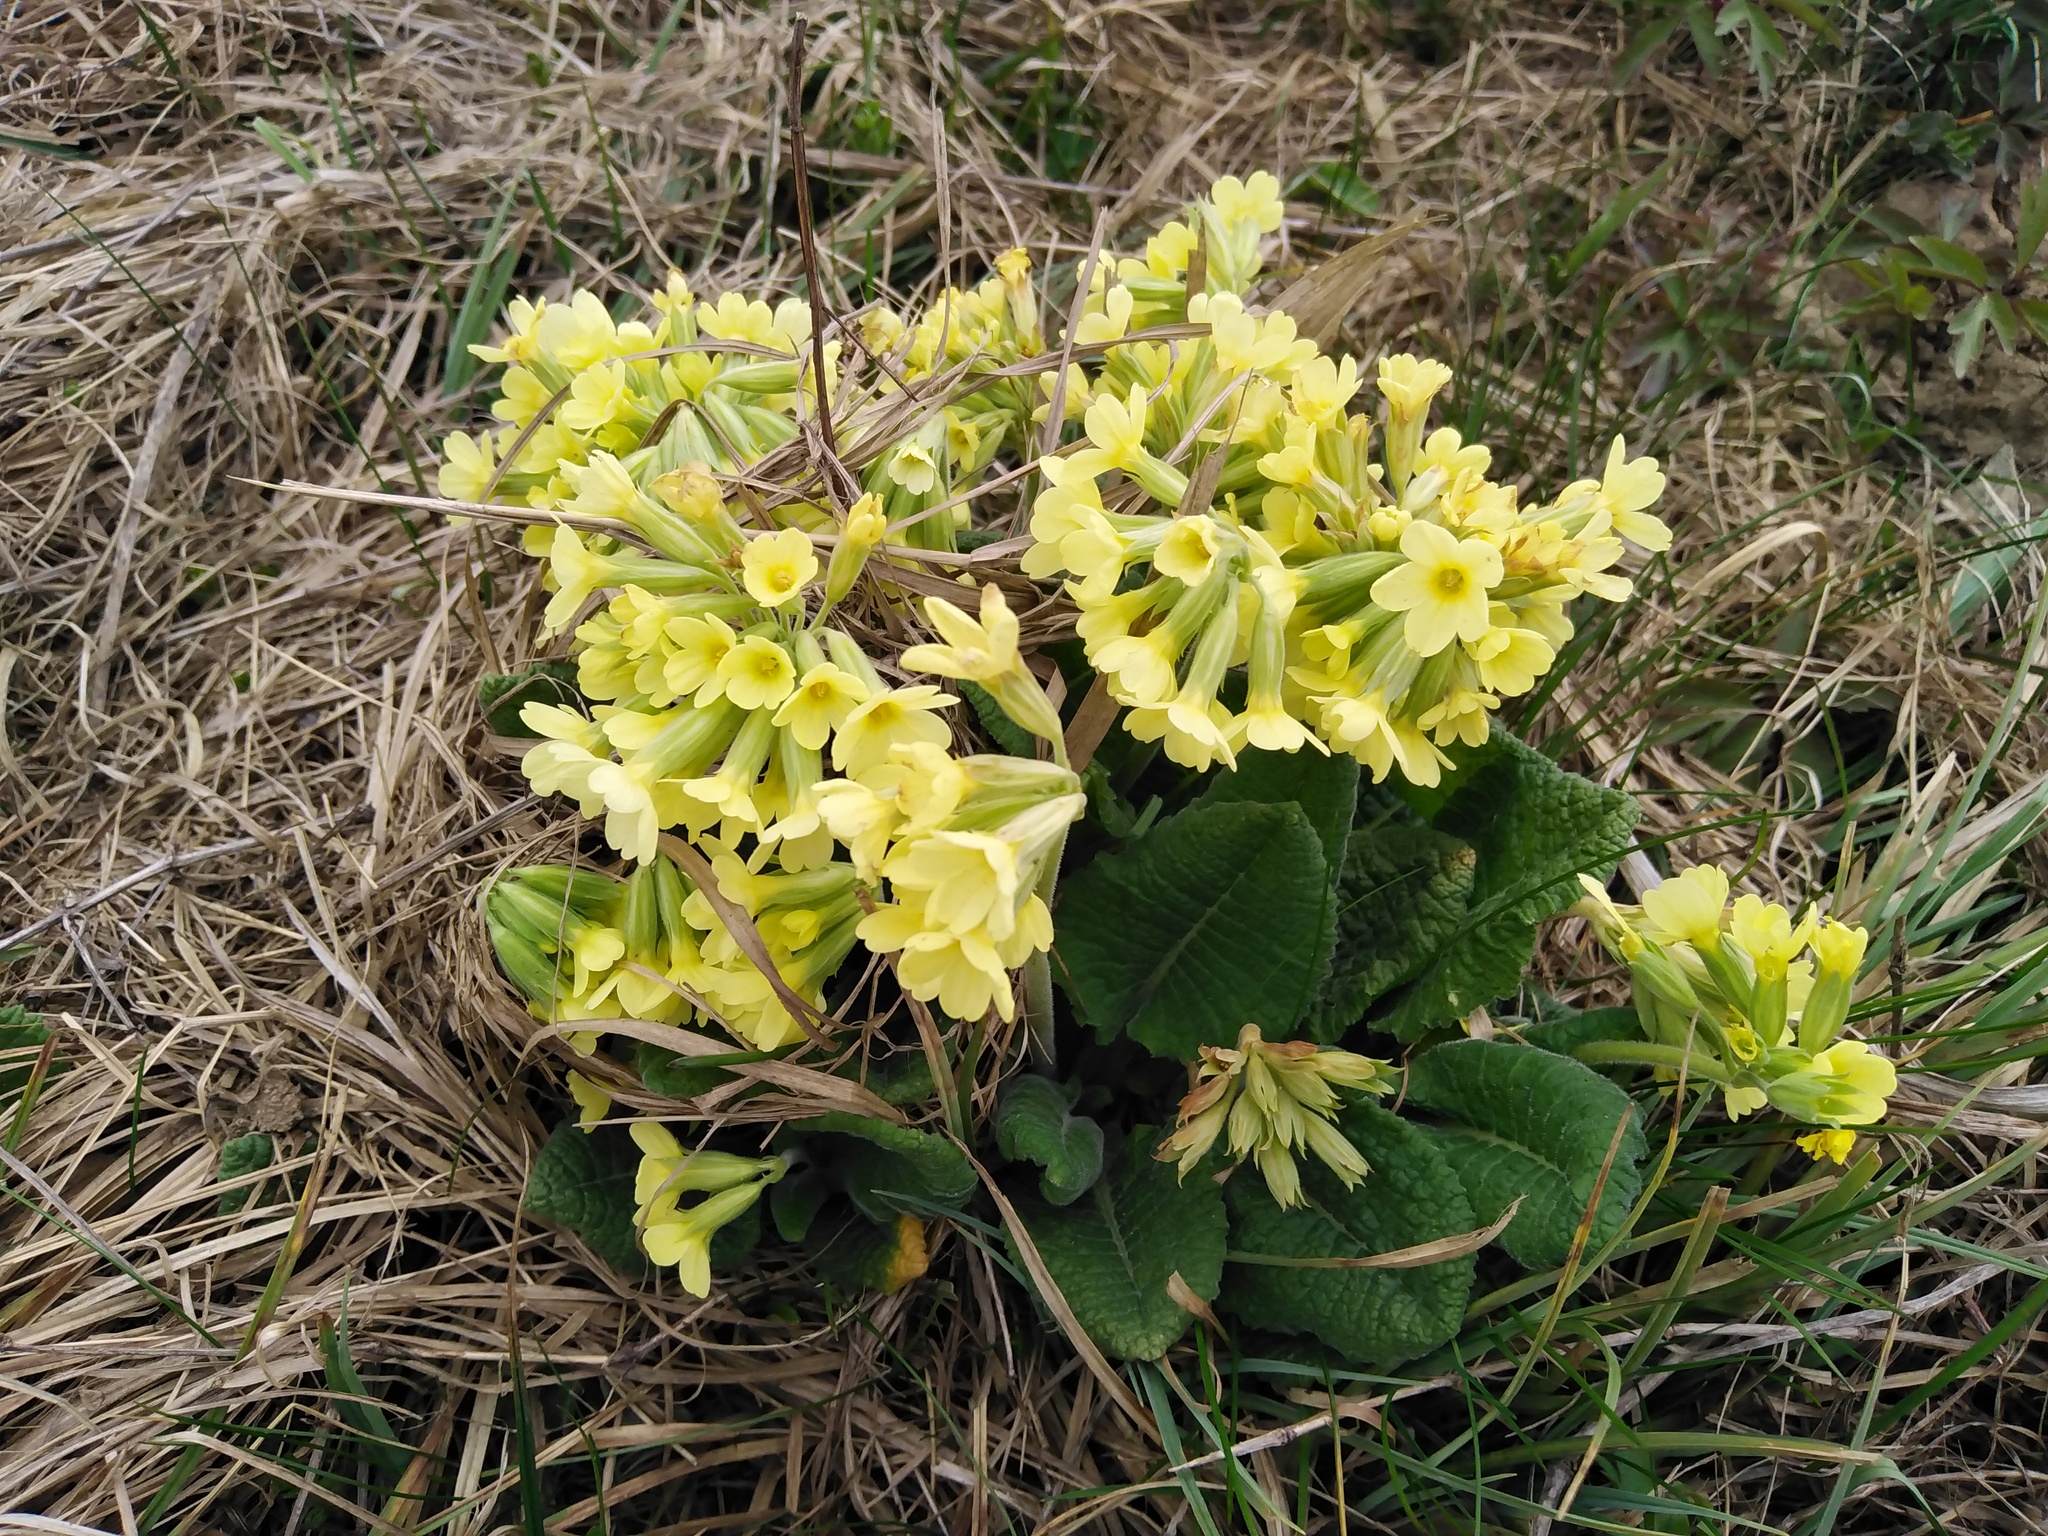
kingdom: Plantae
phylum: Tracheophyta
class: Magnoliopsida
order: Ericales
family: Primulaceae
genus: Primula
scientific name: Primula elatior
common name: Oxlip
